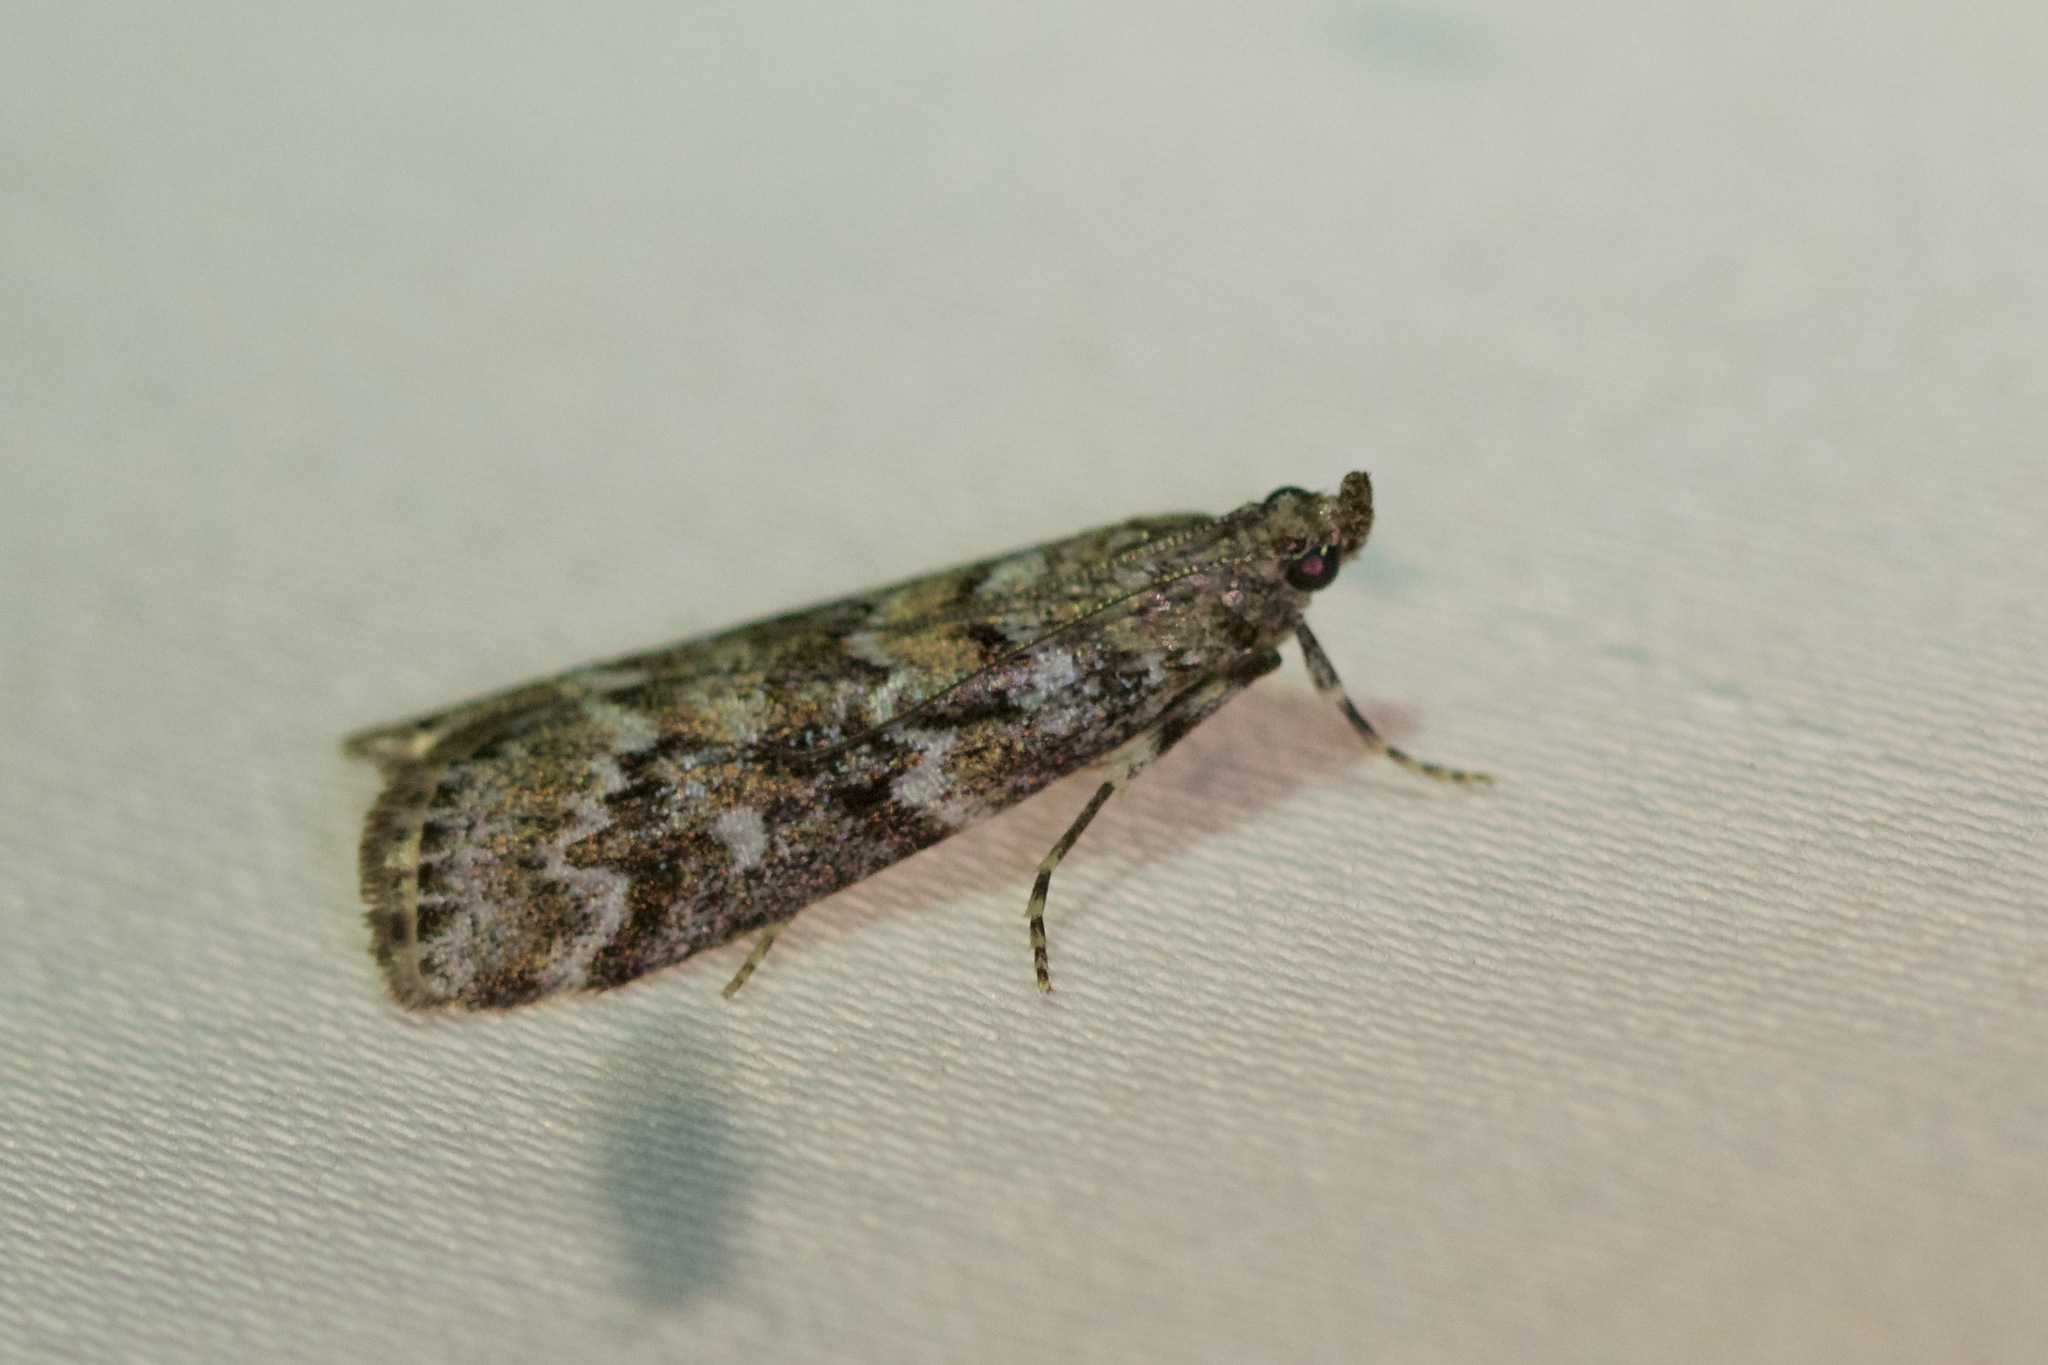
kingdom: Animalia
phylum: Arthropoda
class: Insecta
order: Lepidoptera
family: Pyralidae
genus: Dioryctria
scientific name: Dioryctria reniculelloides
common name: Spruce coneworm moth
